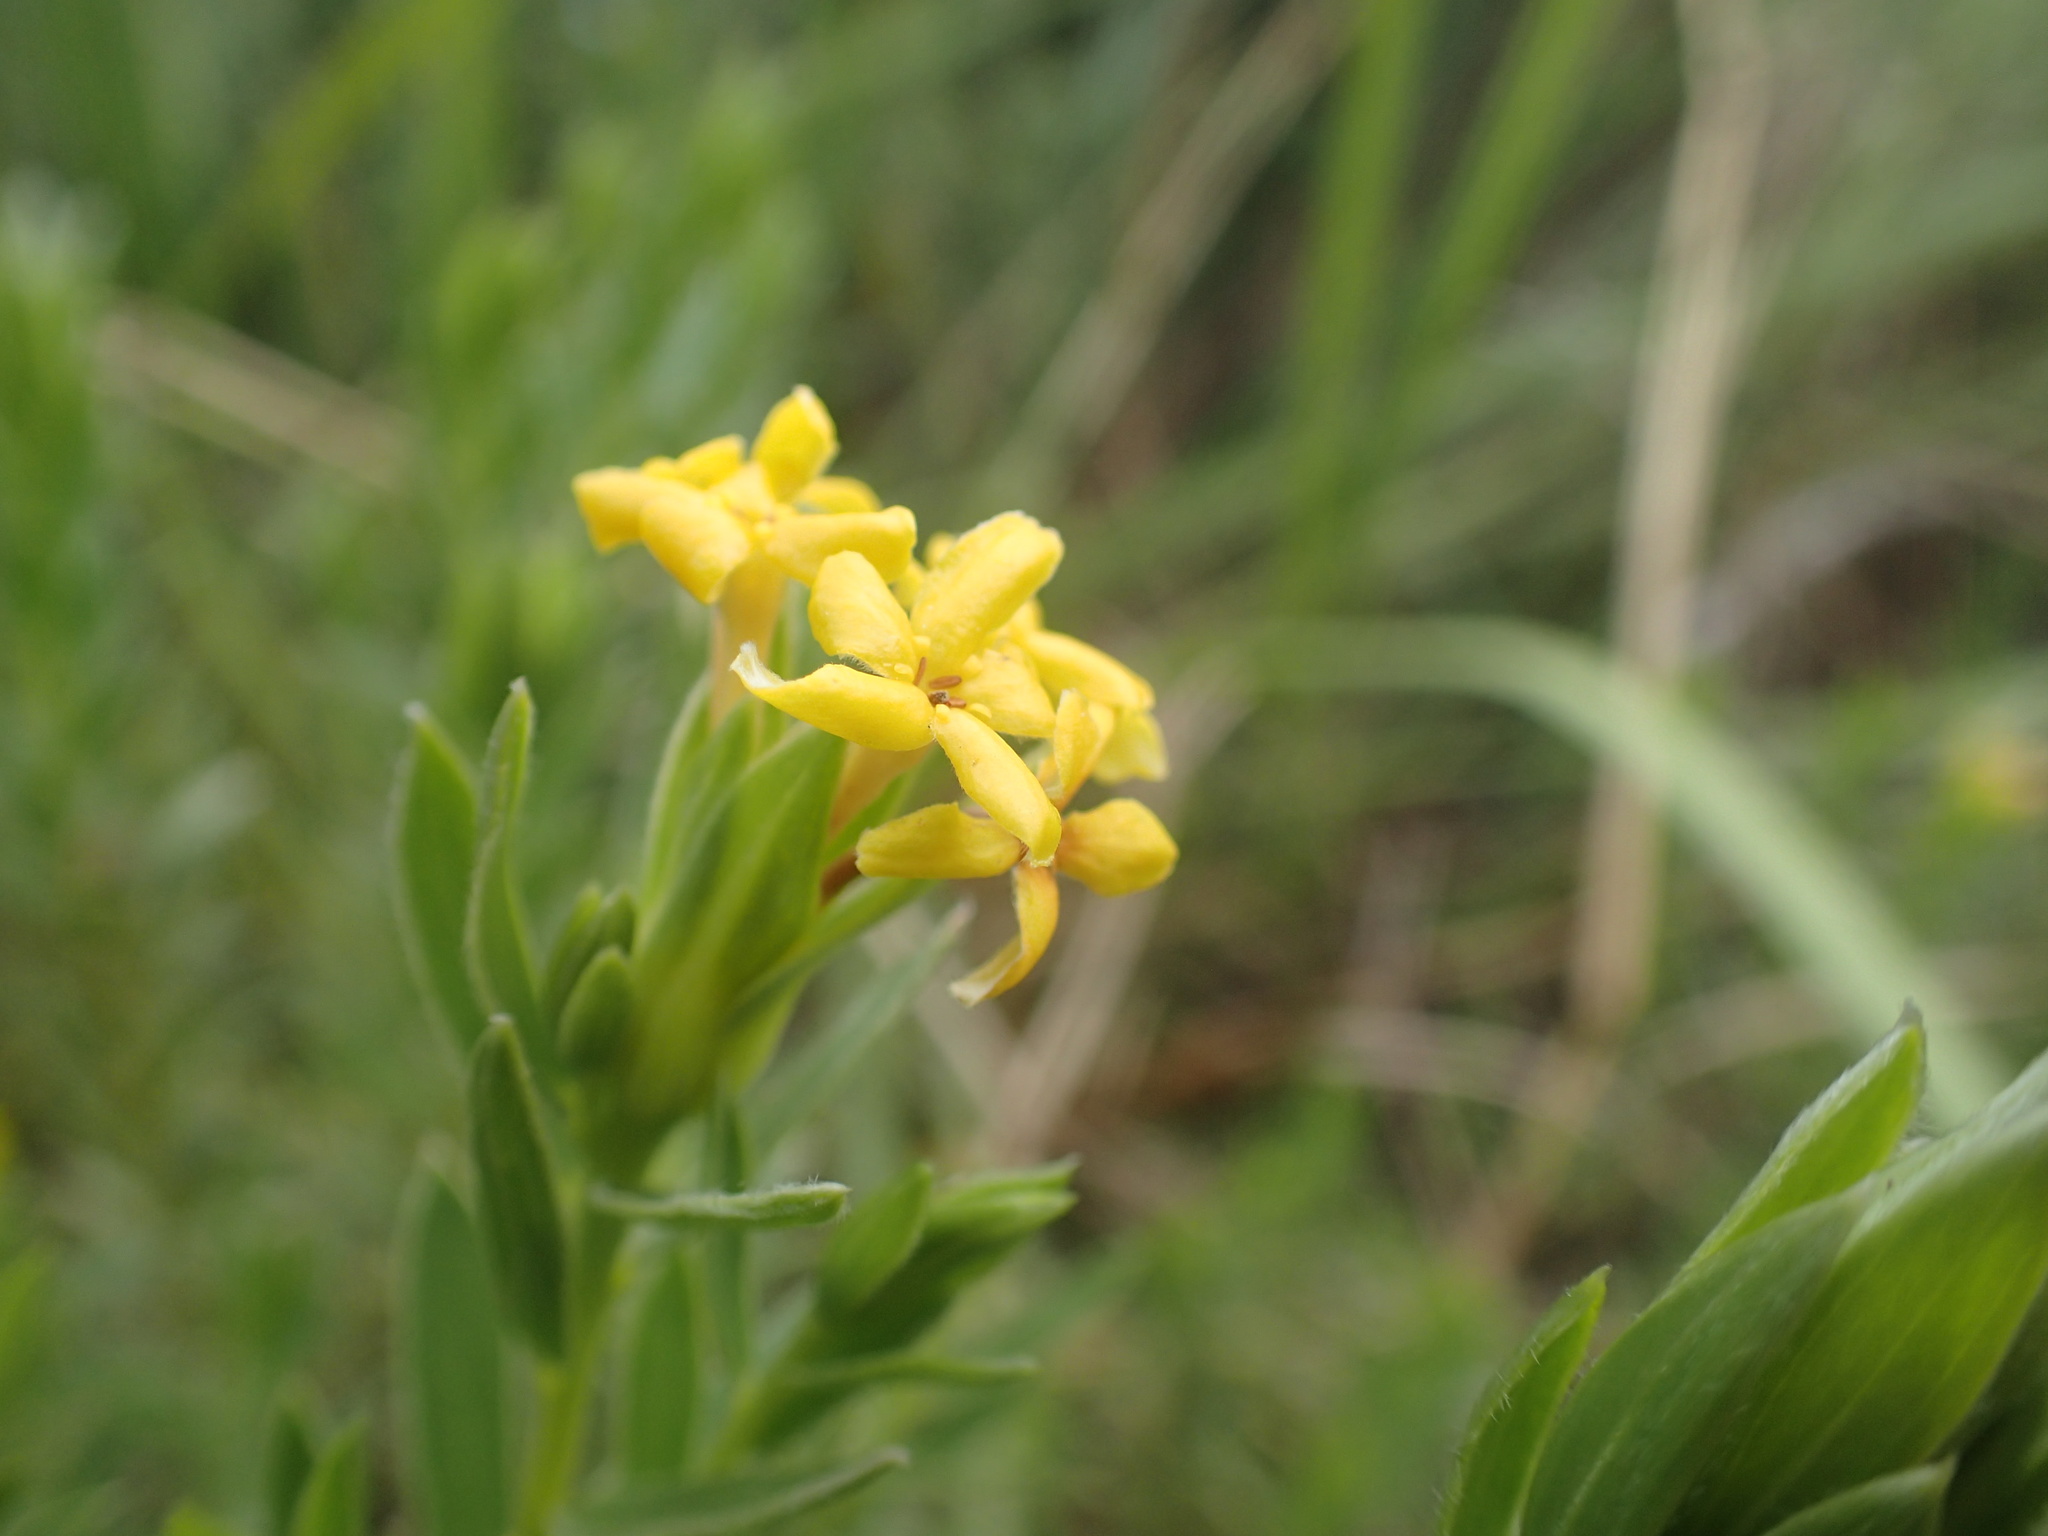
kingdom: Plantae
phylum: Tracheophyta
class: Magnoliopsida
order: Malvales
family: Thymelaeaceae
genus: Gnidia
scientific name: Gnidia capitata
